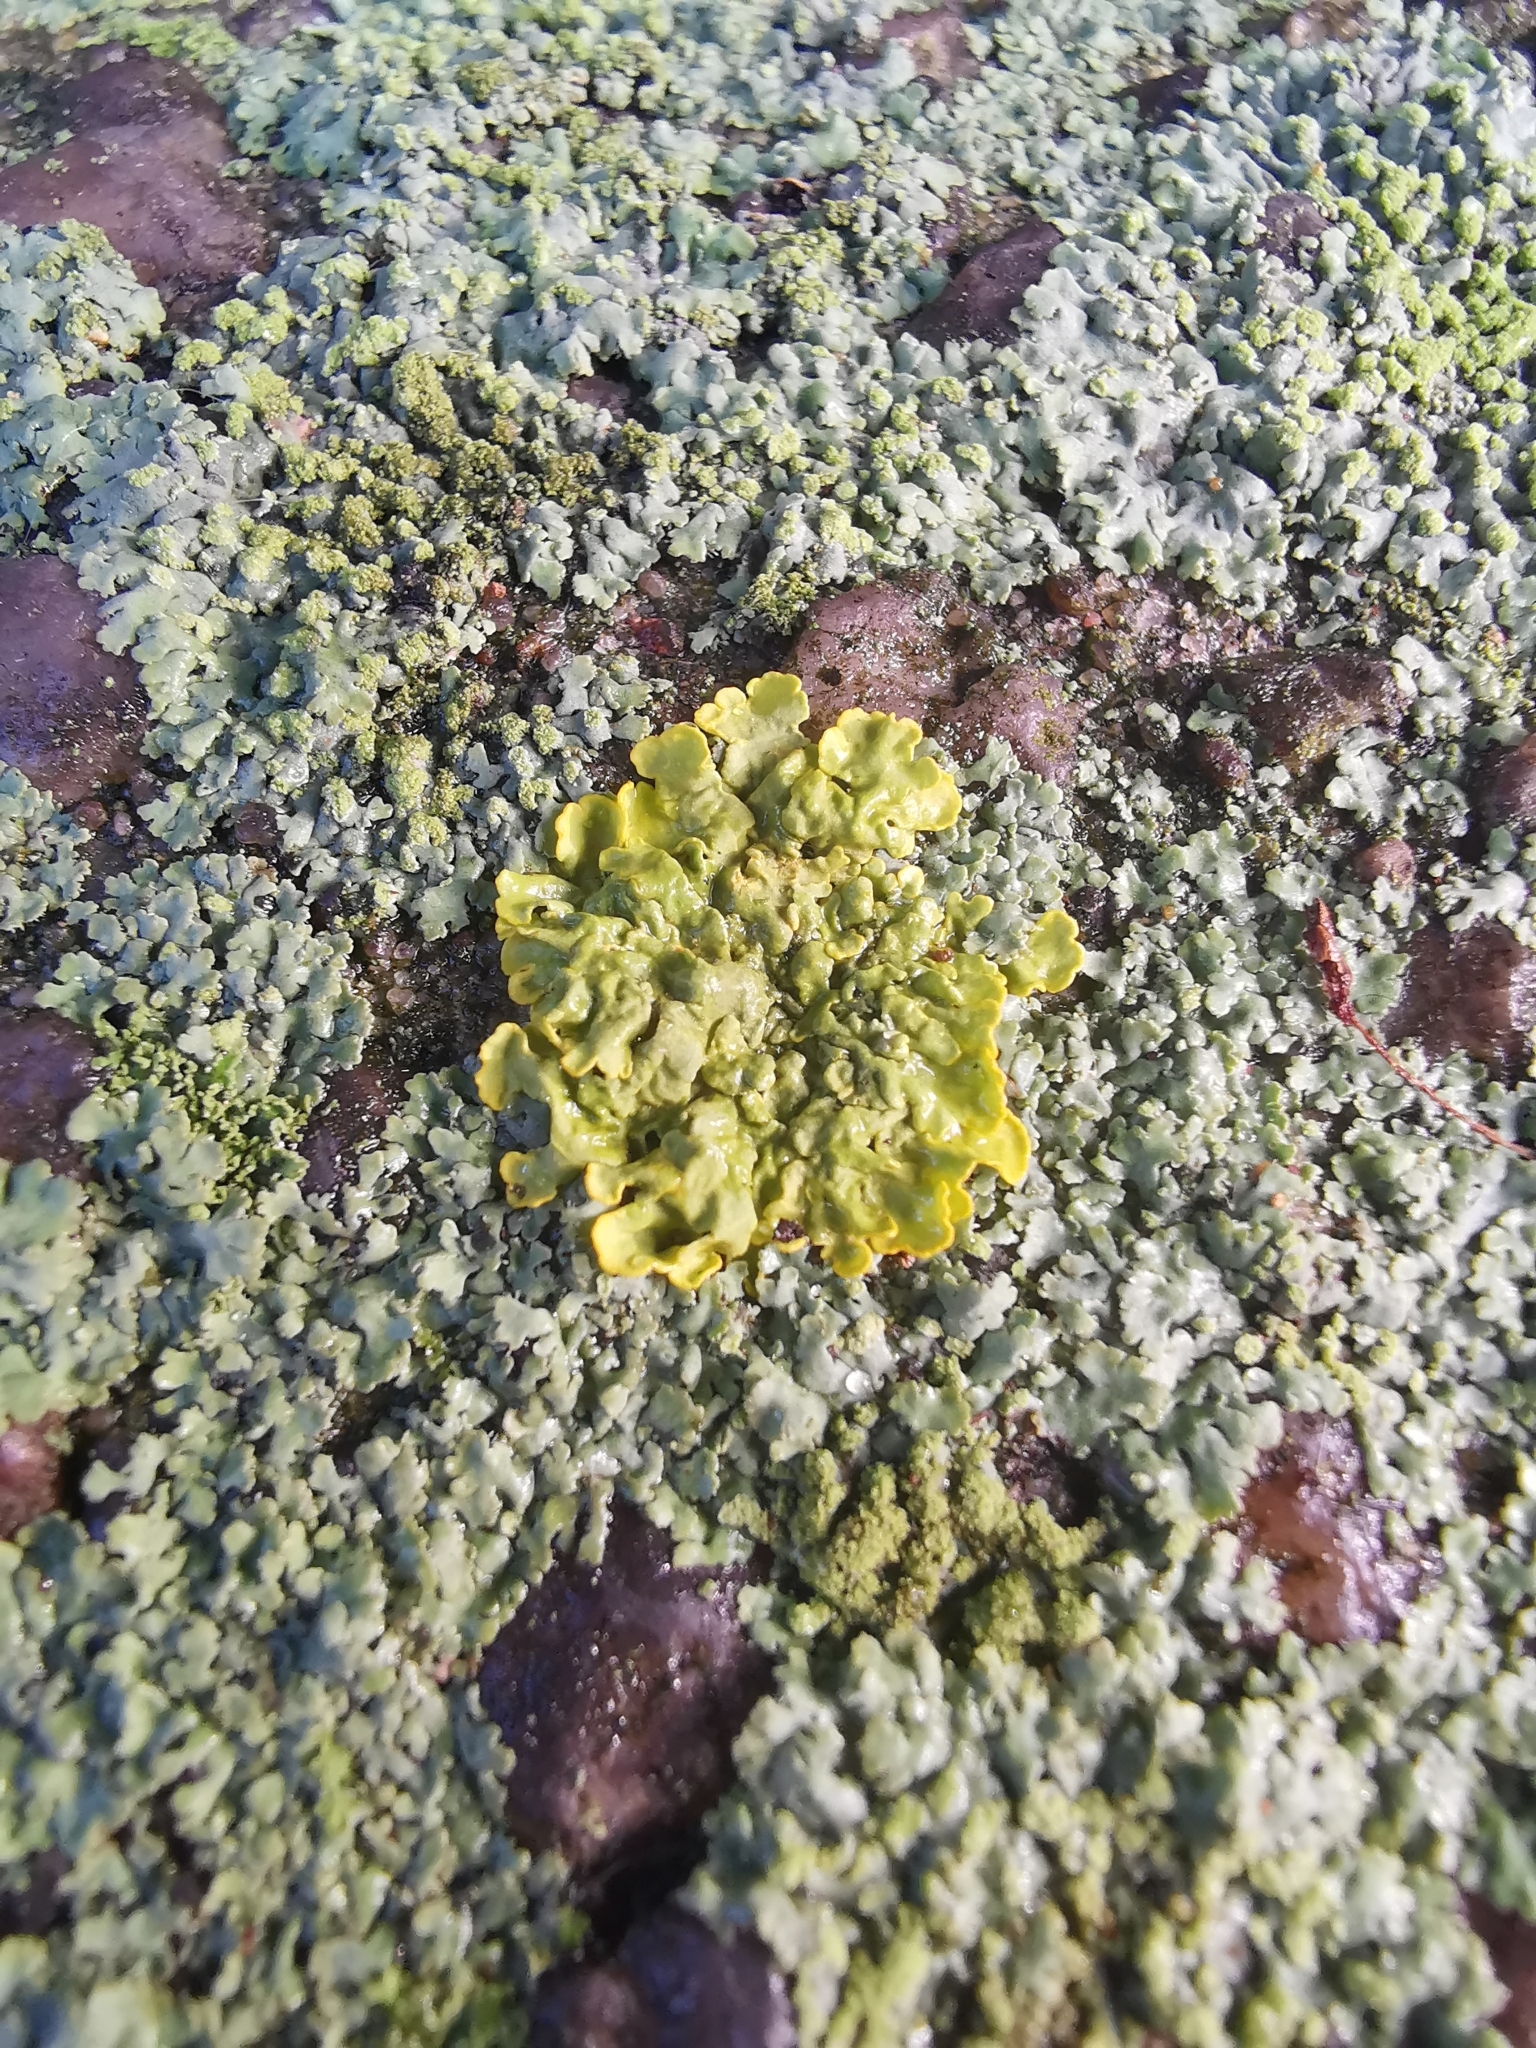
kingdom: Fungi
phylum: Ascomycota
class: Lecanoromycetes
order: Teloschistales
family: Teloschistaceae
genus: Xanthoria
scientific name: Xanthoria parietina
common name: Common orange lichen
